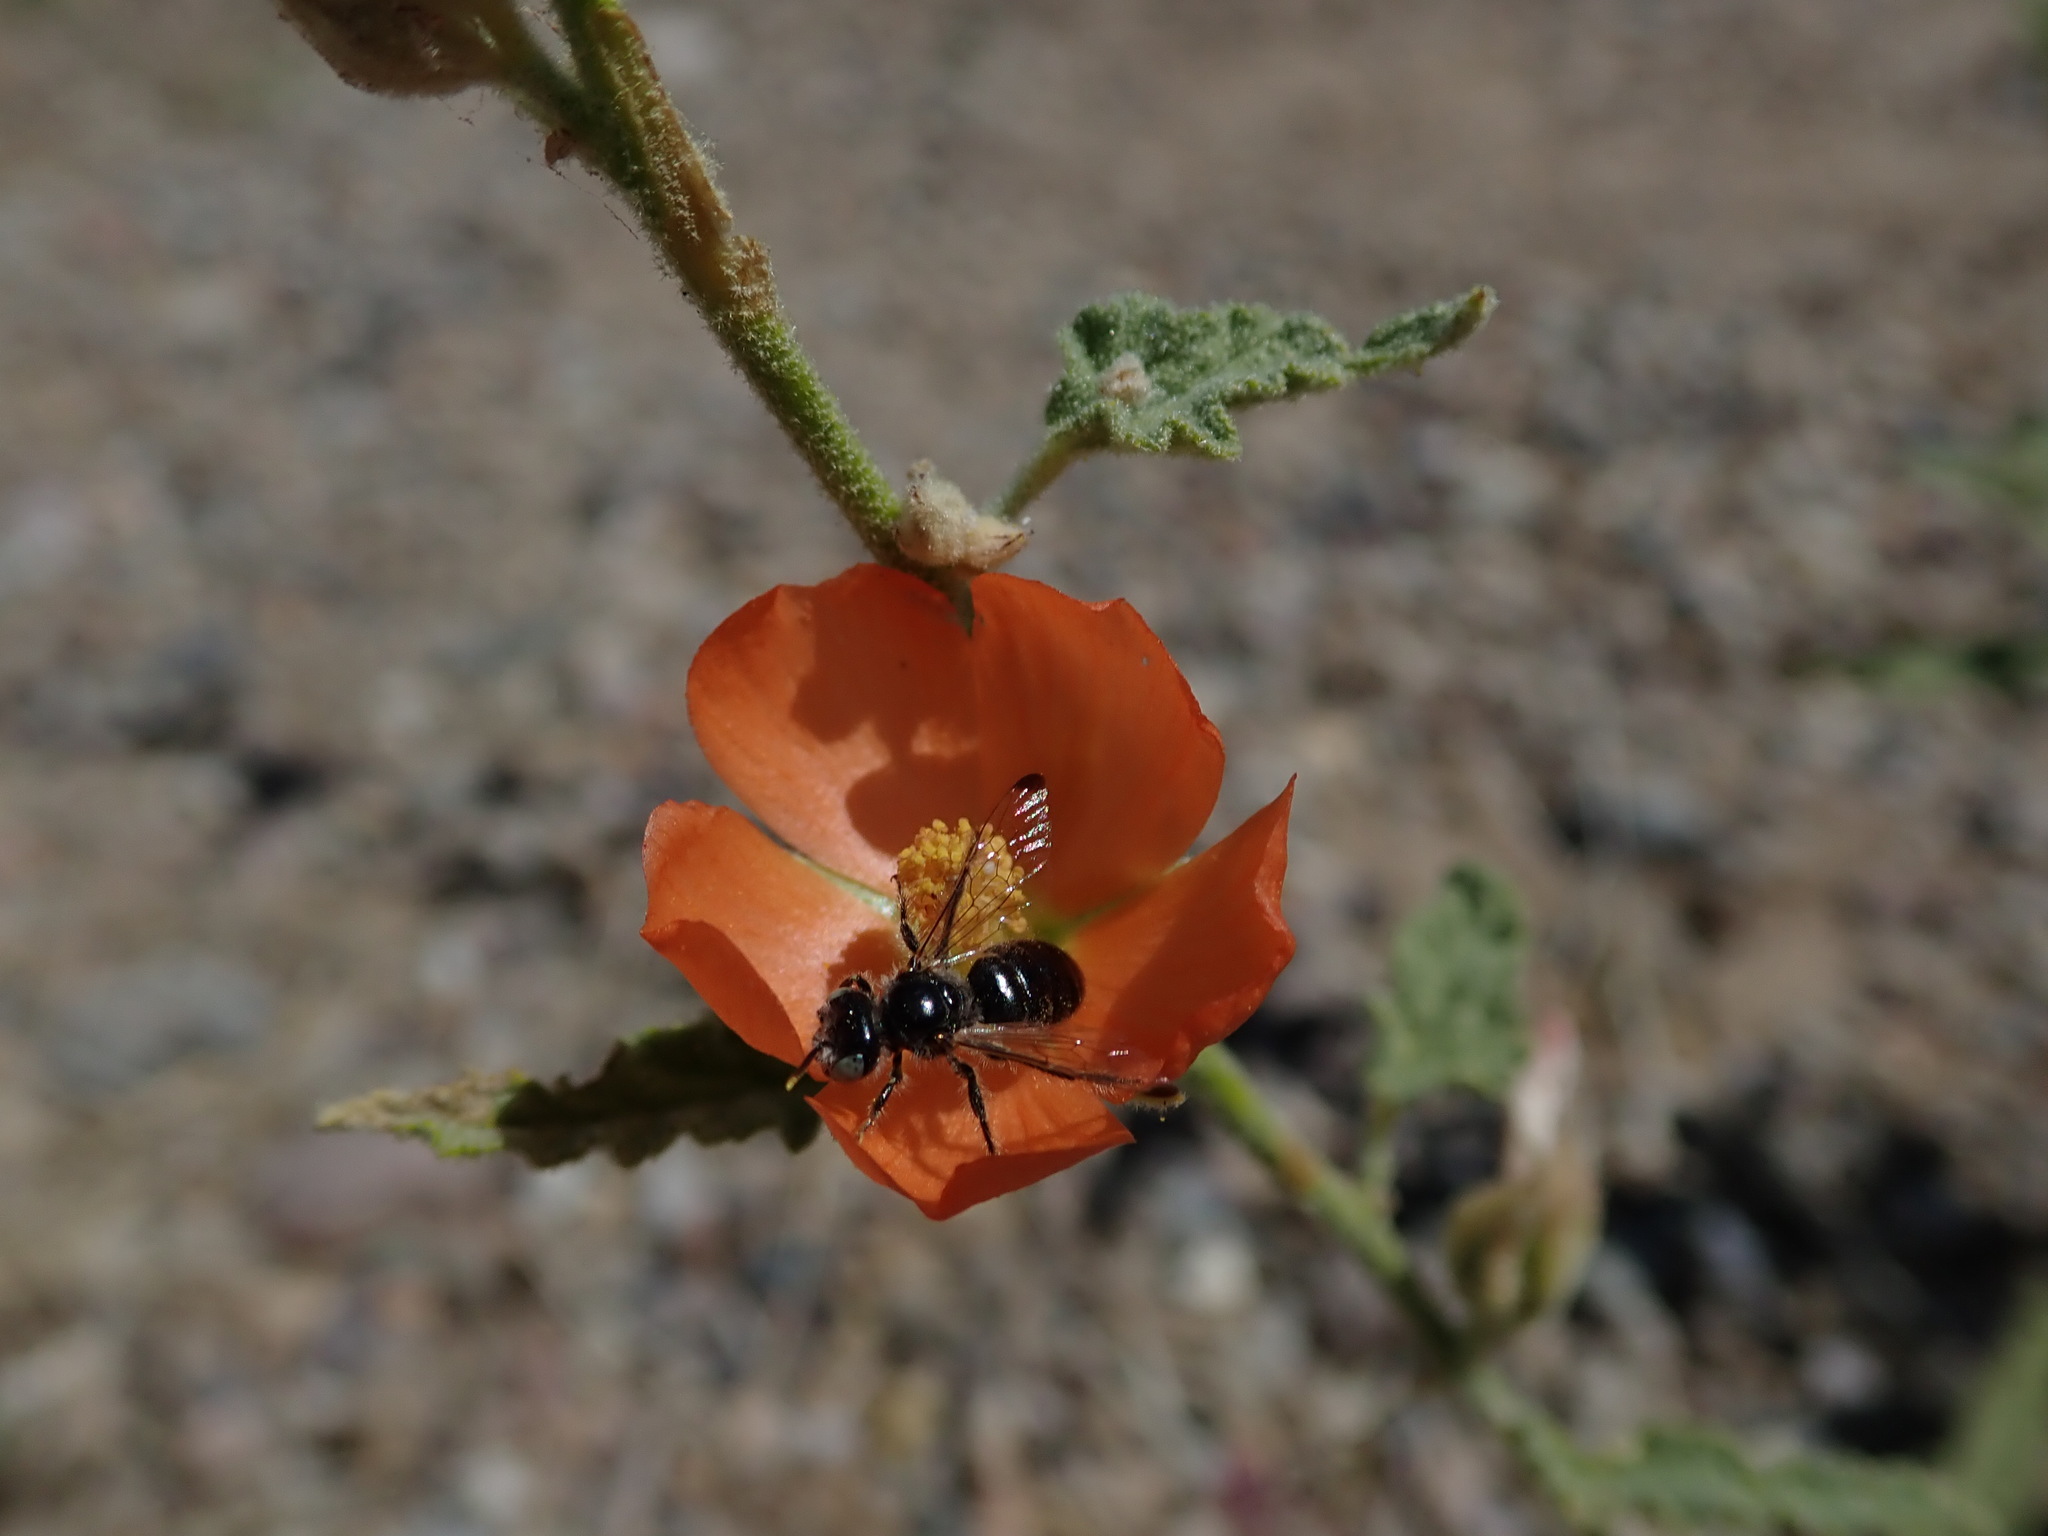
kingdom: Animalia
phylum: Arthropoda
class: Insecta
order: Hymenoptera
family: Andrenidae
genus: Calliopsis
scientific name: Calliopsis subalpina
